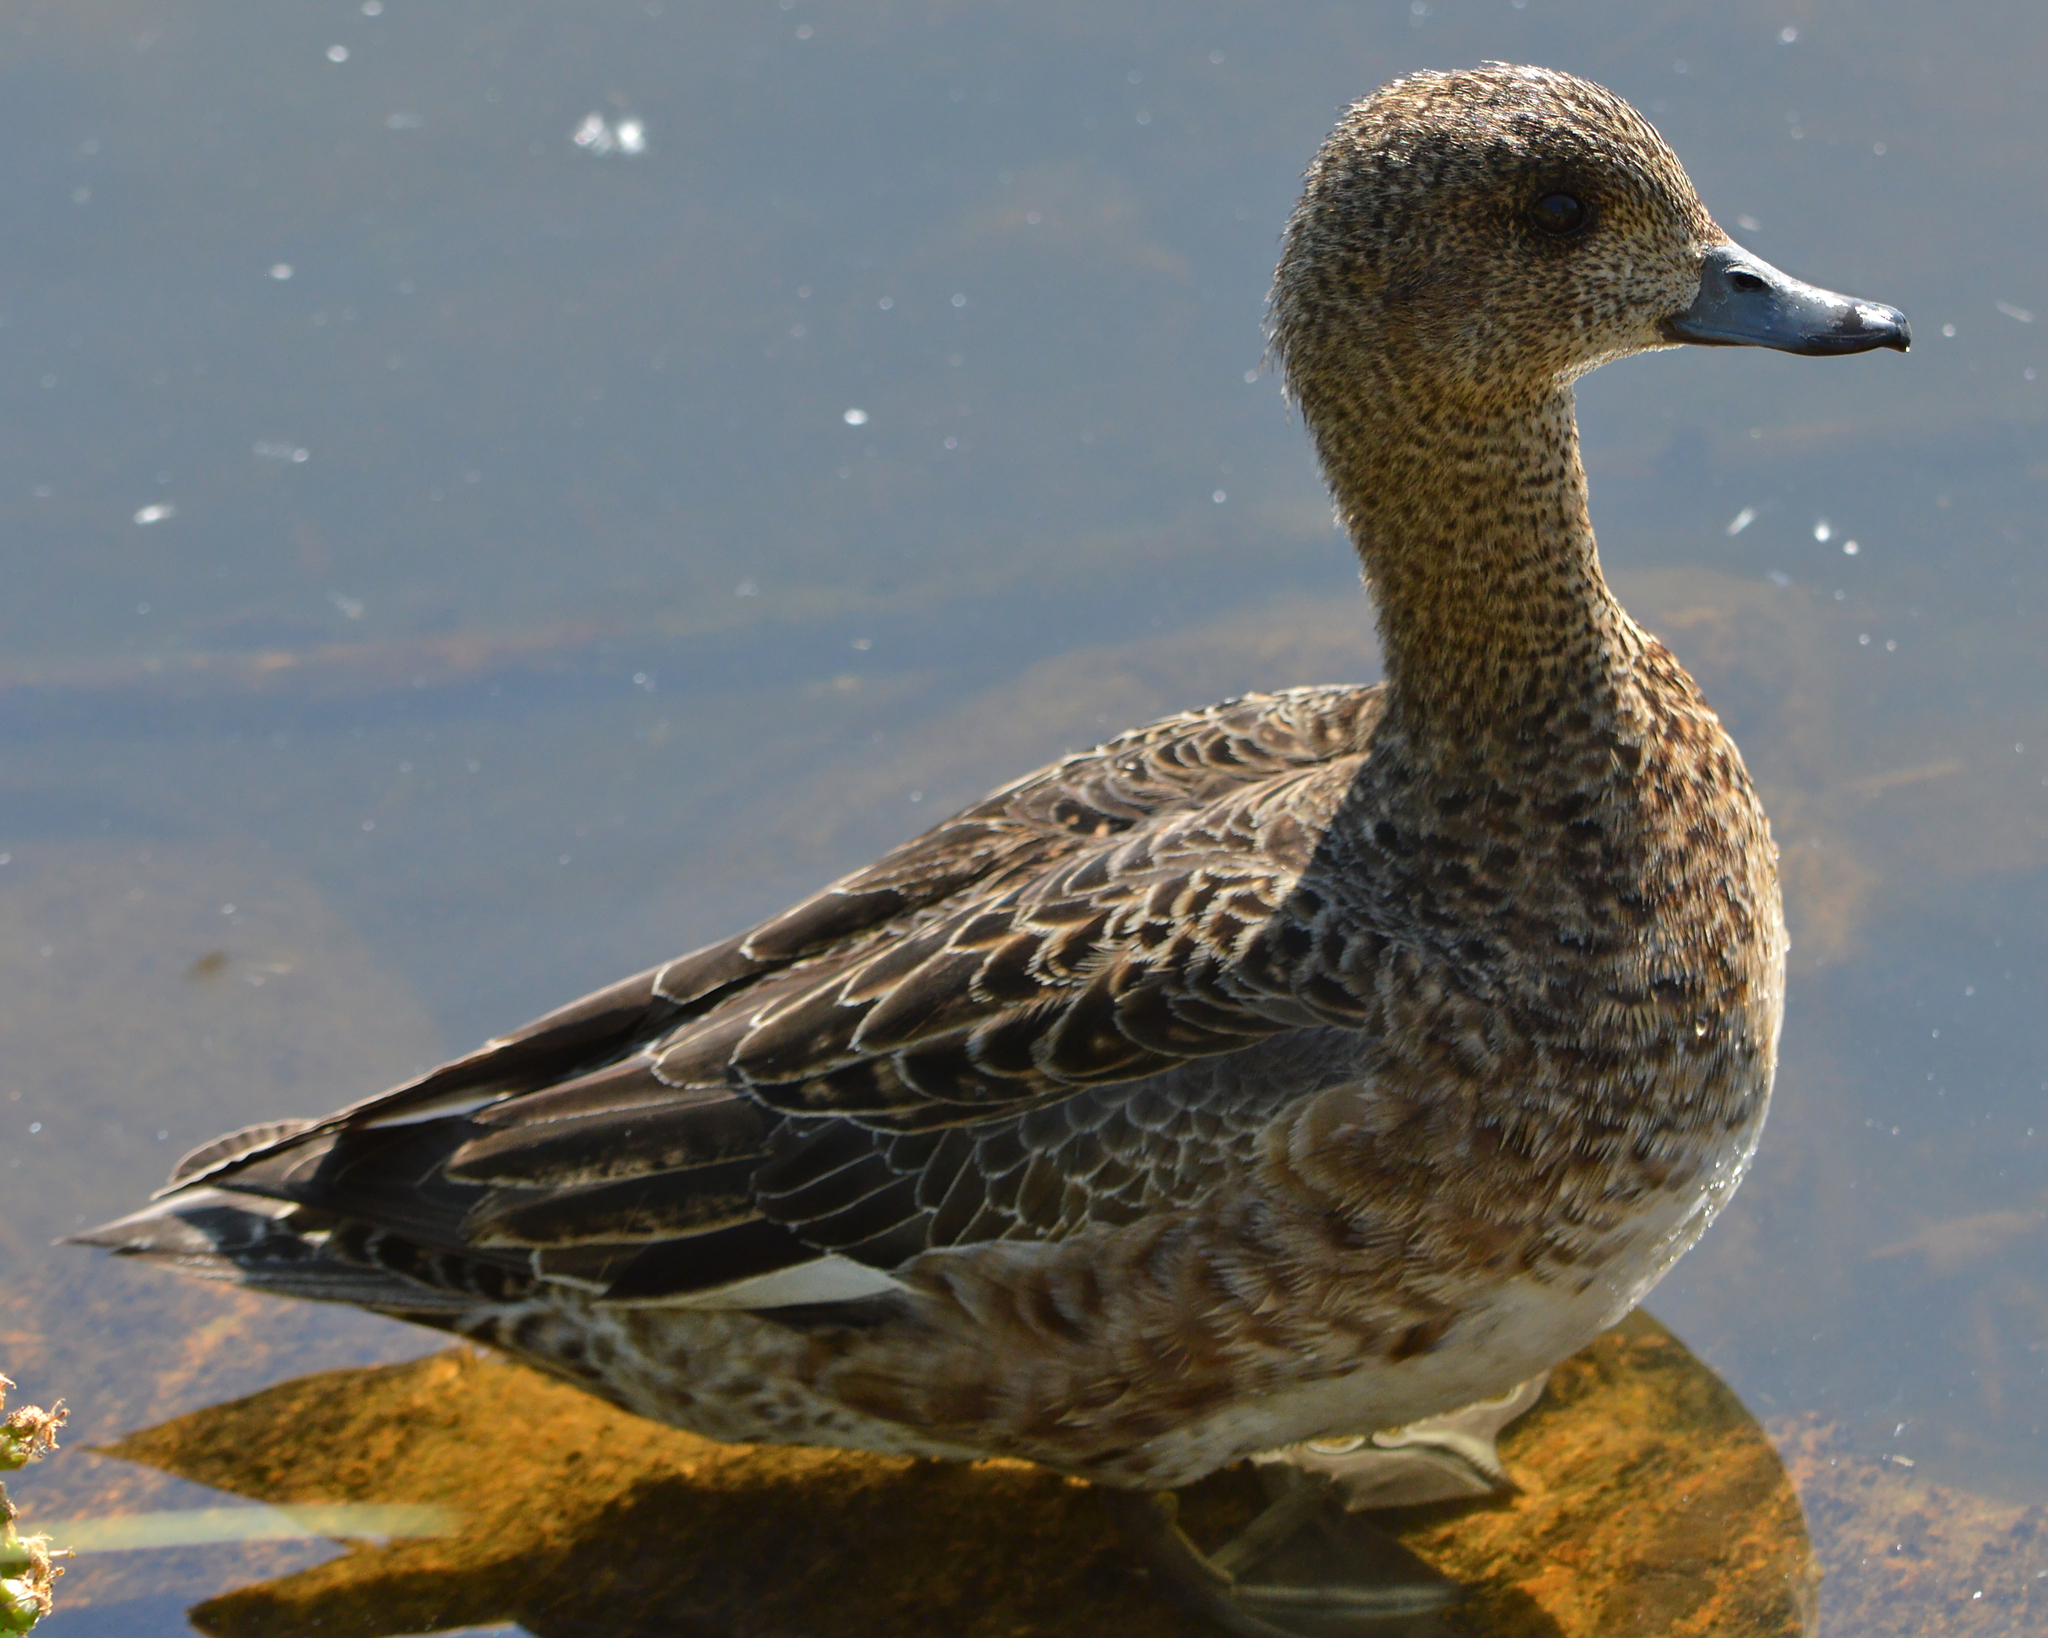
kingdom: Animalia
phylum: Chordata
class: Aves
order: Anseriformes
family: Anatidae
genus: Mareca
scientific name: Mareca penelope
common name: Eurasian wigeon
